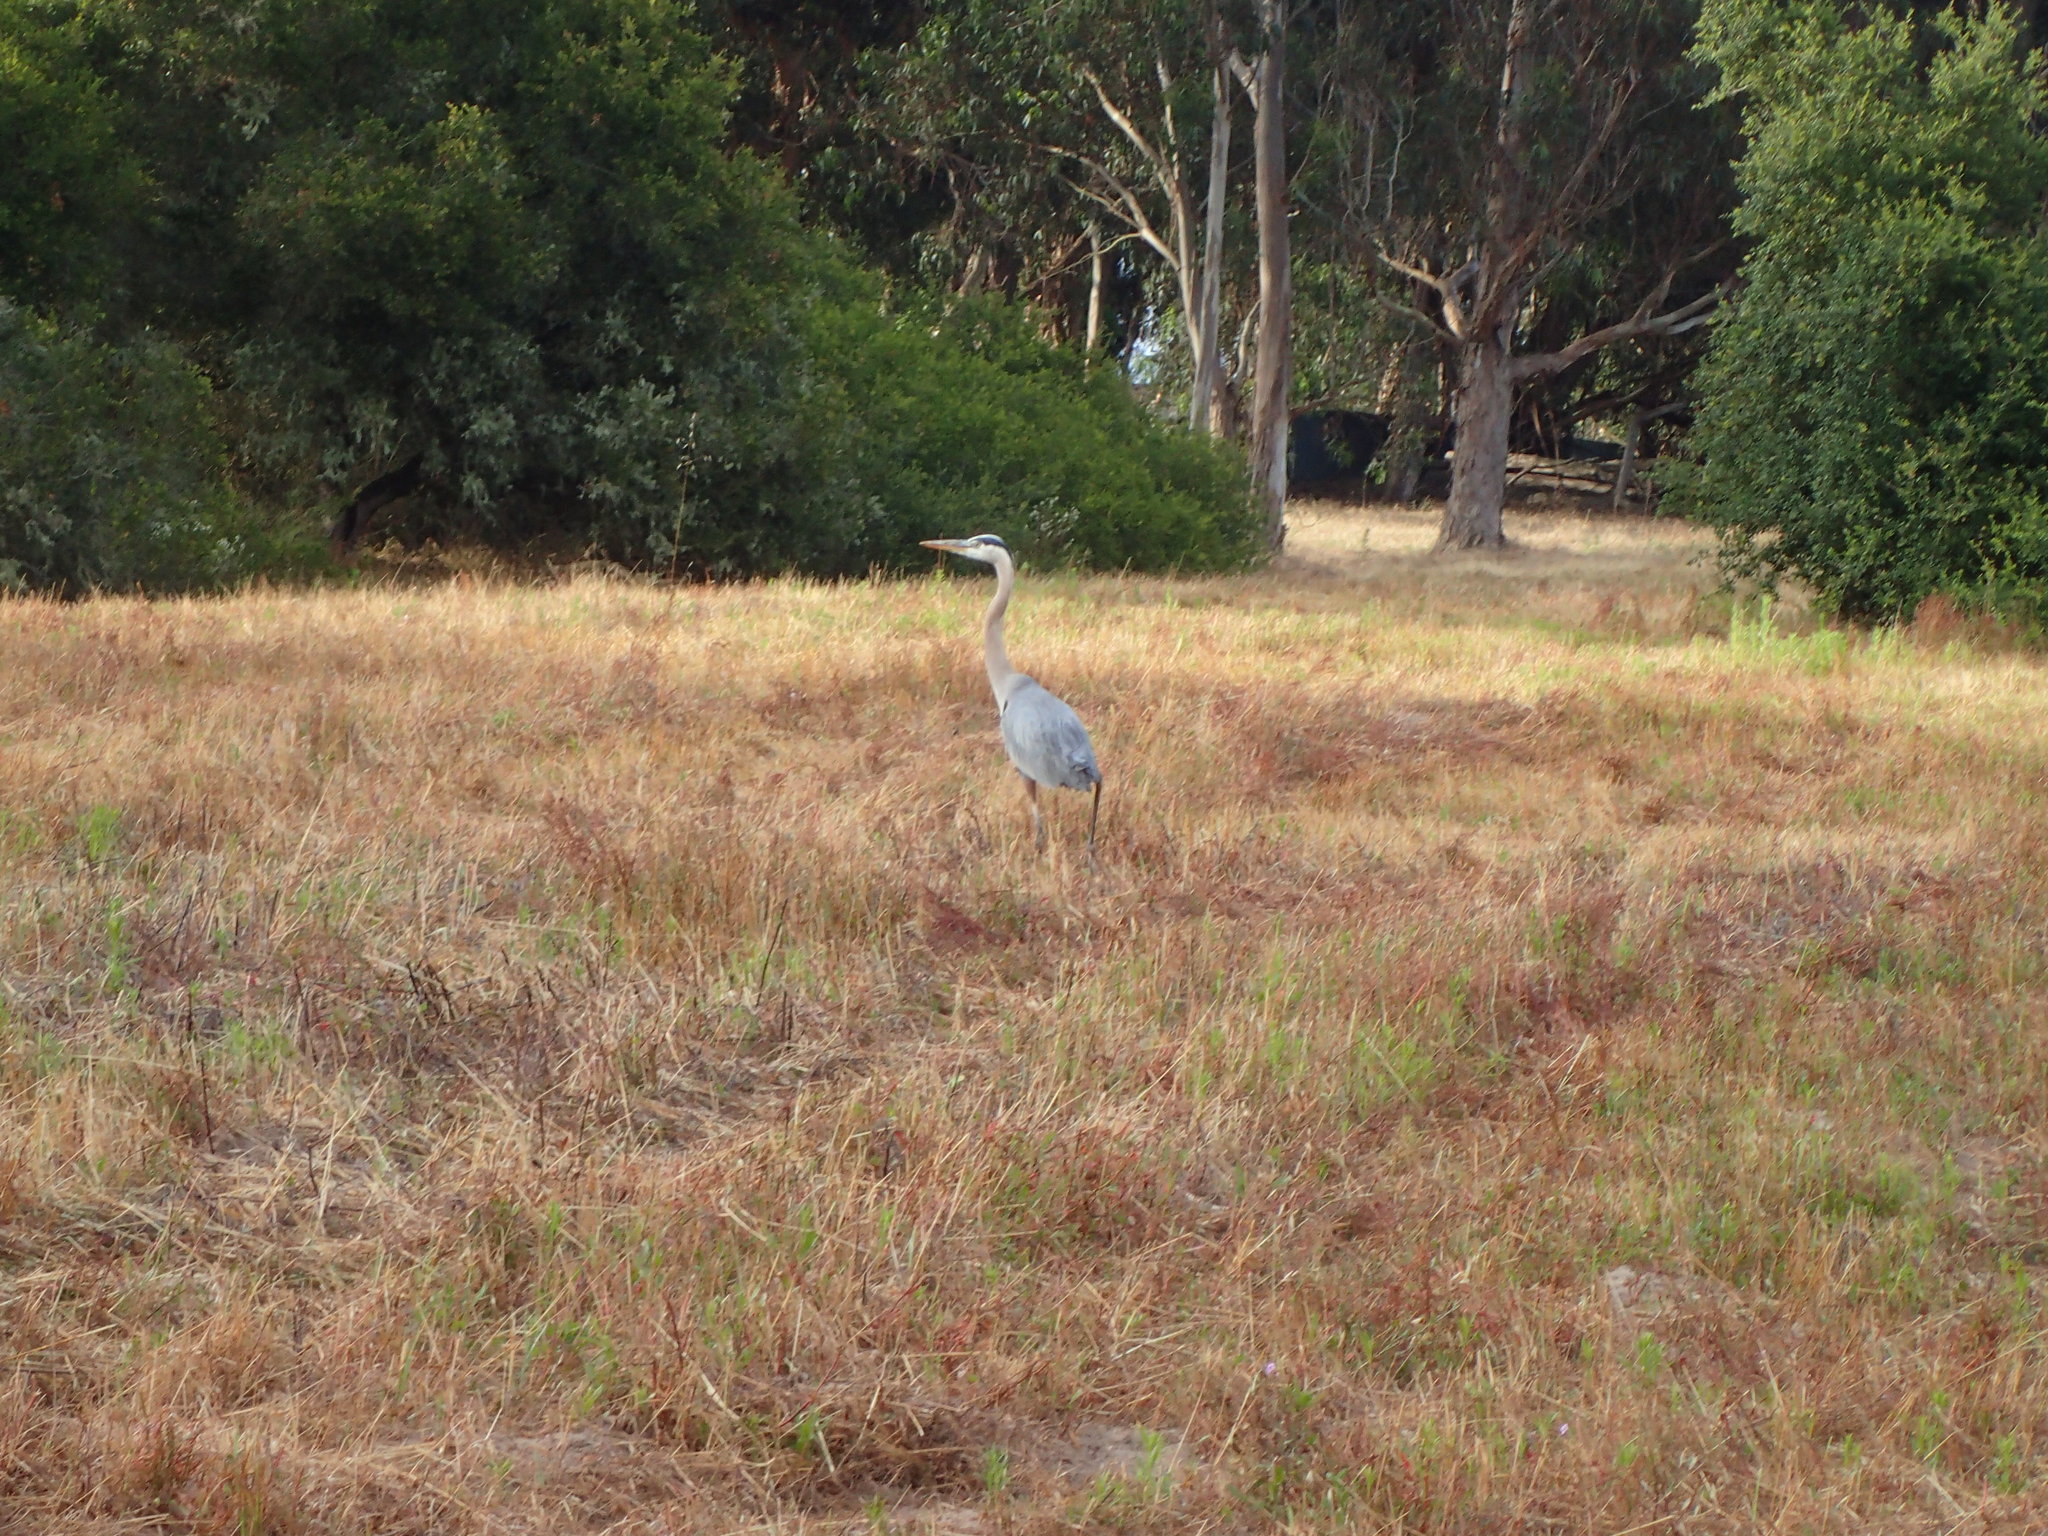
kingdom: Animalia
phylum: Chordata
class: Aves
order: Pelecaniformes
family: Ardeidae
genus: Ardea
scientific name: Ardea herodias
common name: Great blue heron
